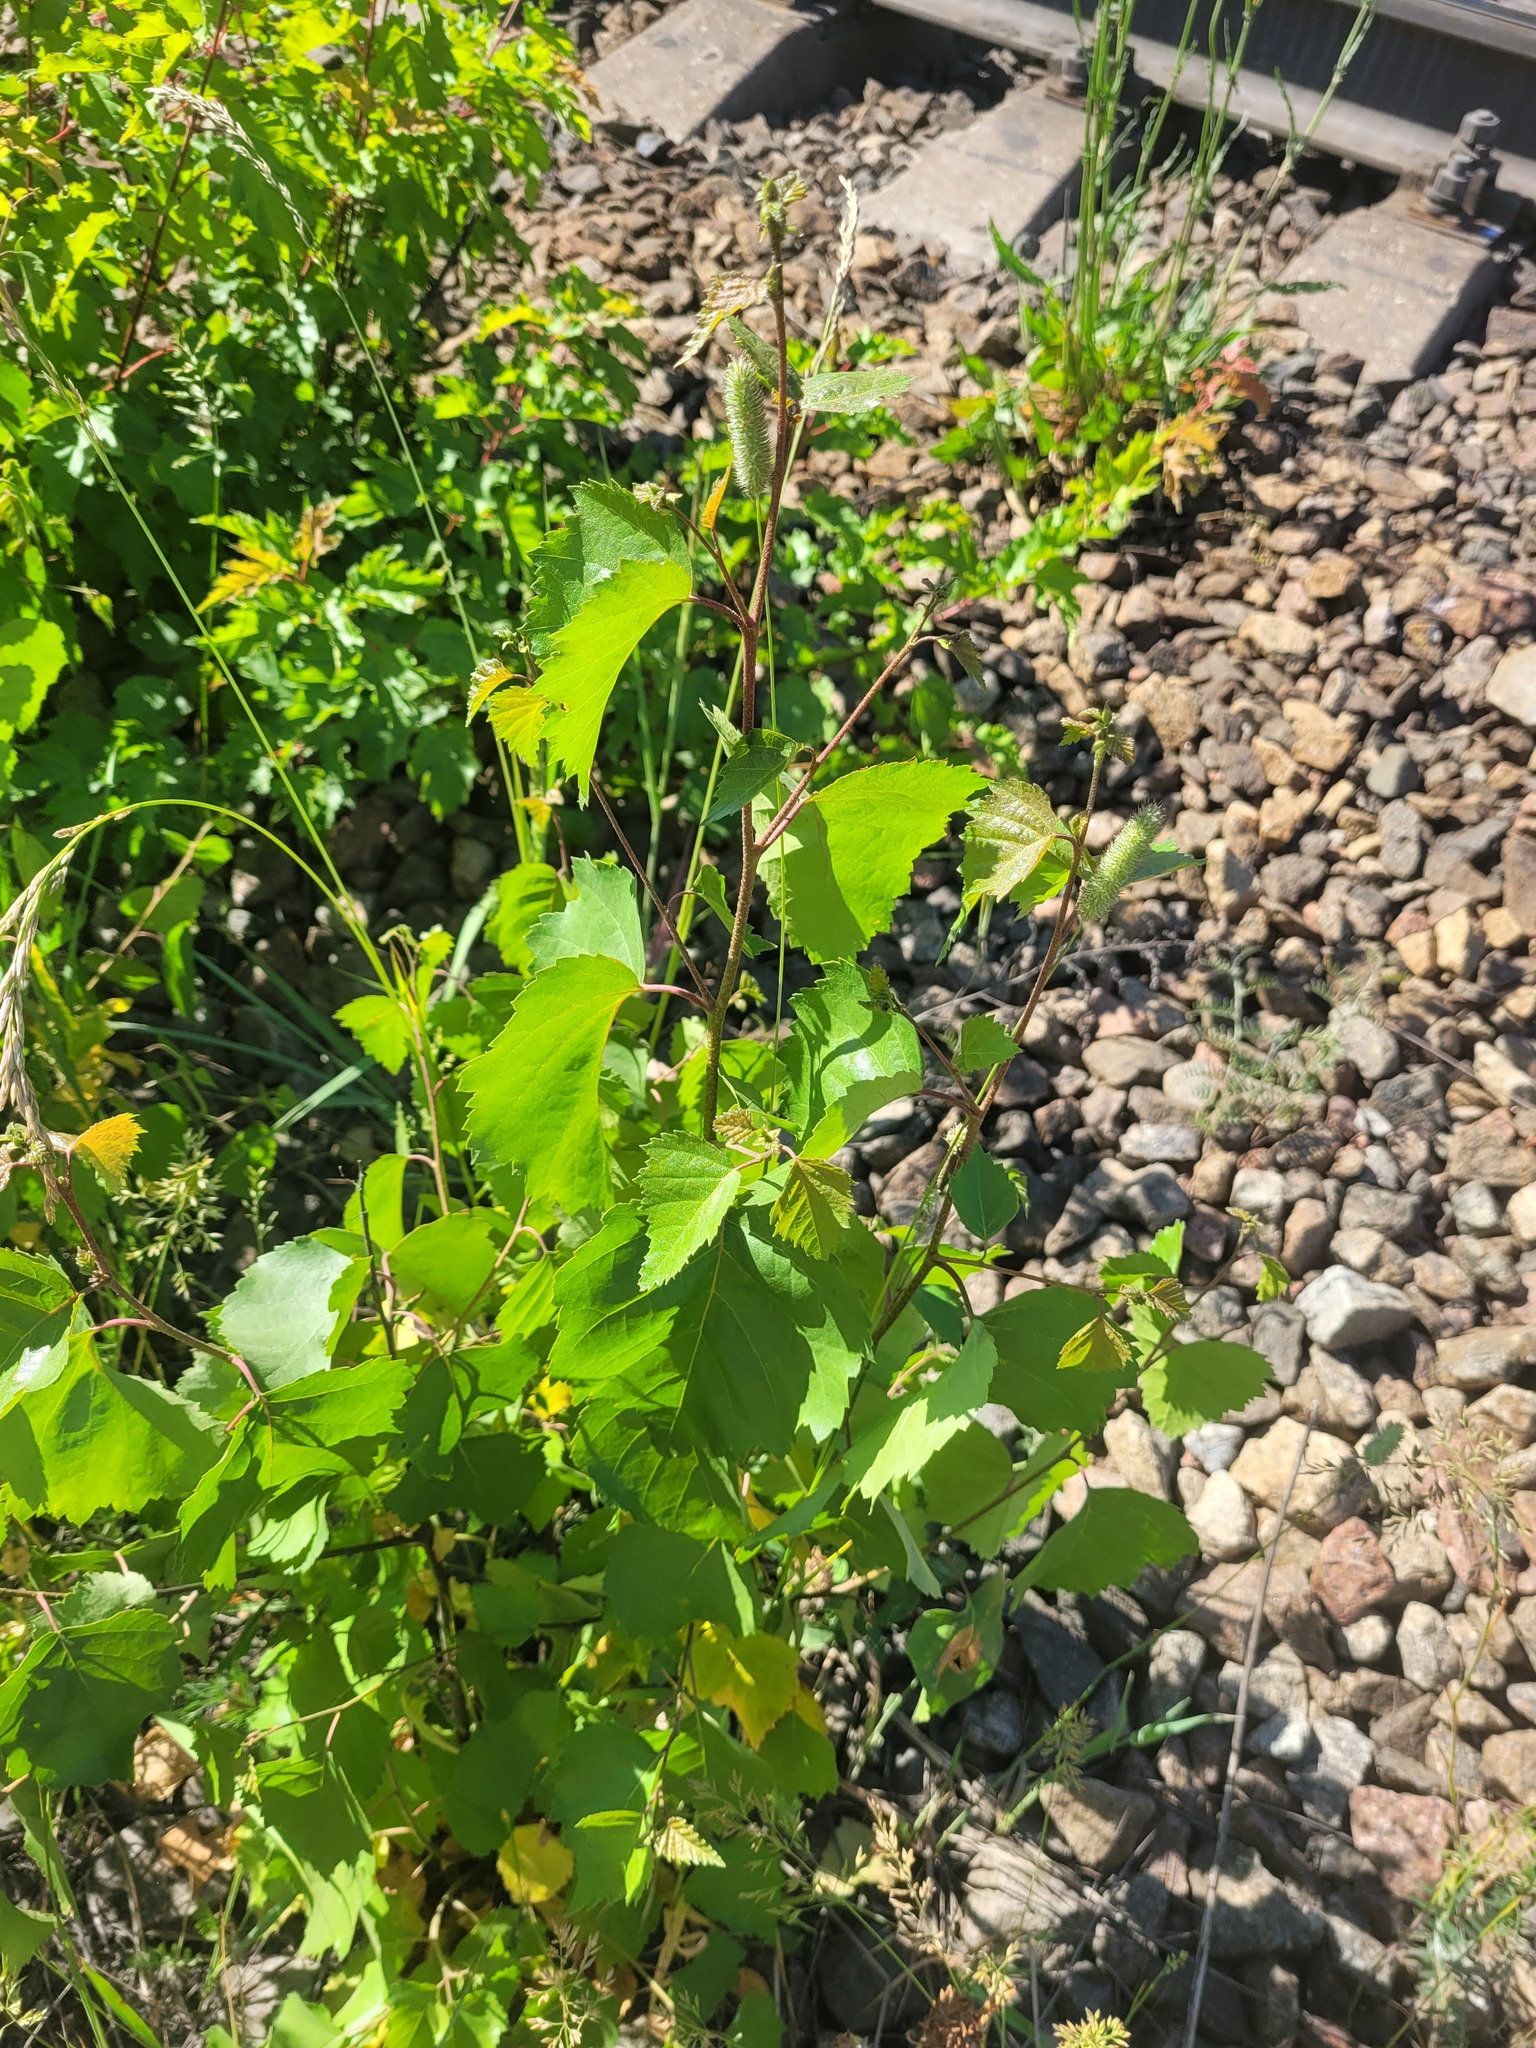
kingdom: Plantae
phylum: Tracheophyta
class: Magnoliopsida
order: Fagales
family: Betulaceae
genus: Betula
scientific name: Betula pendula
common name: Silver birch
